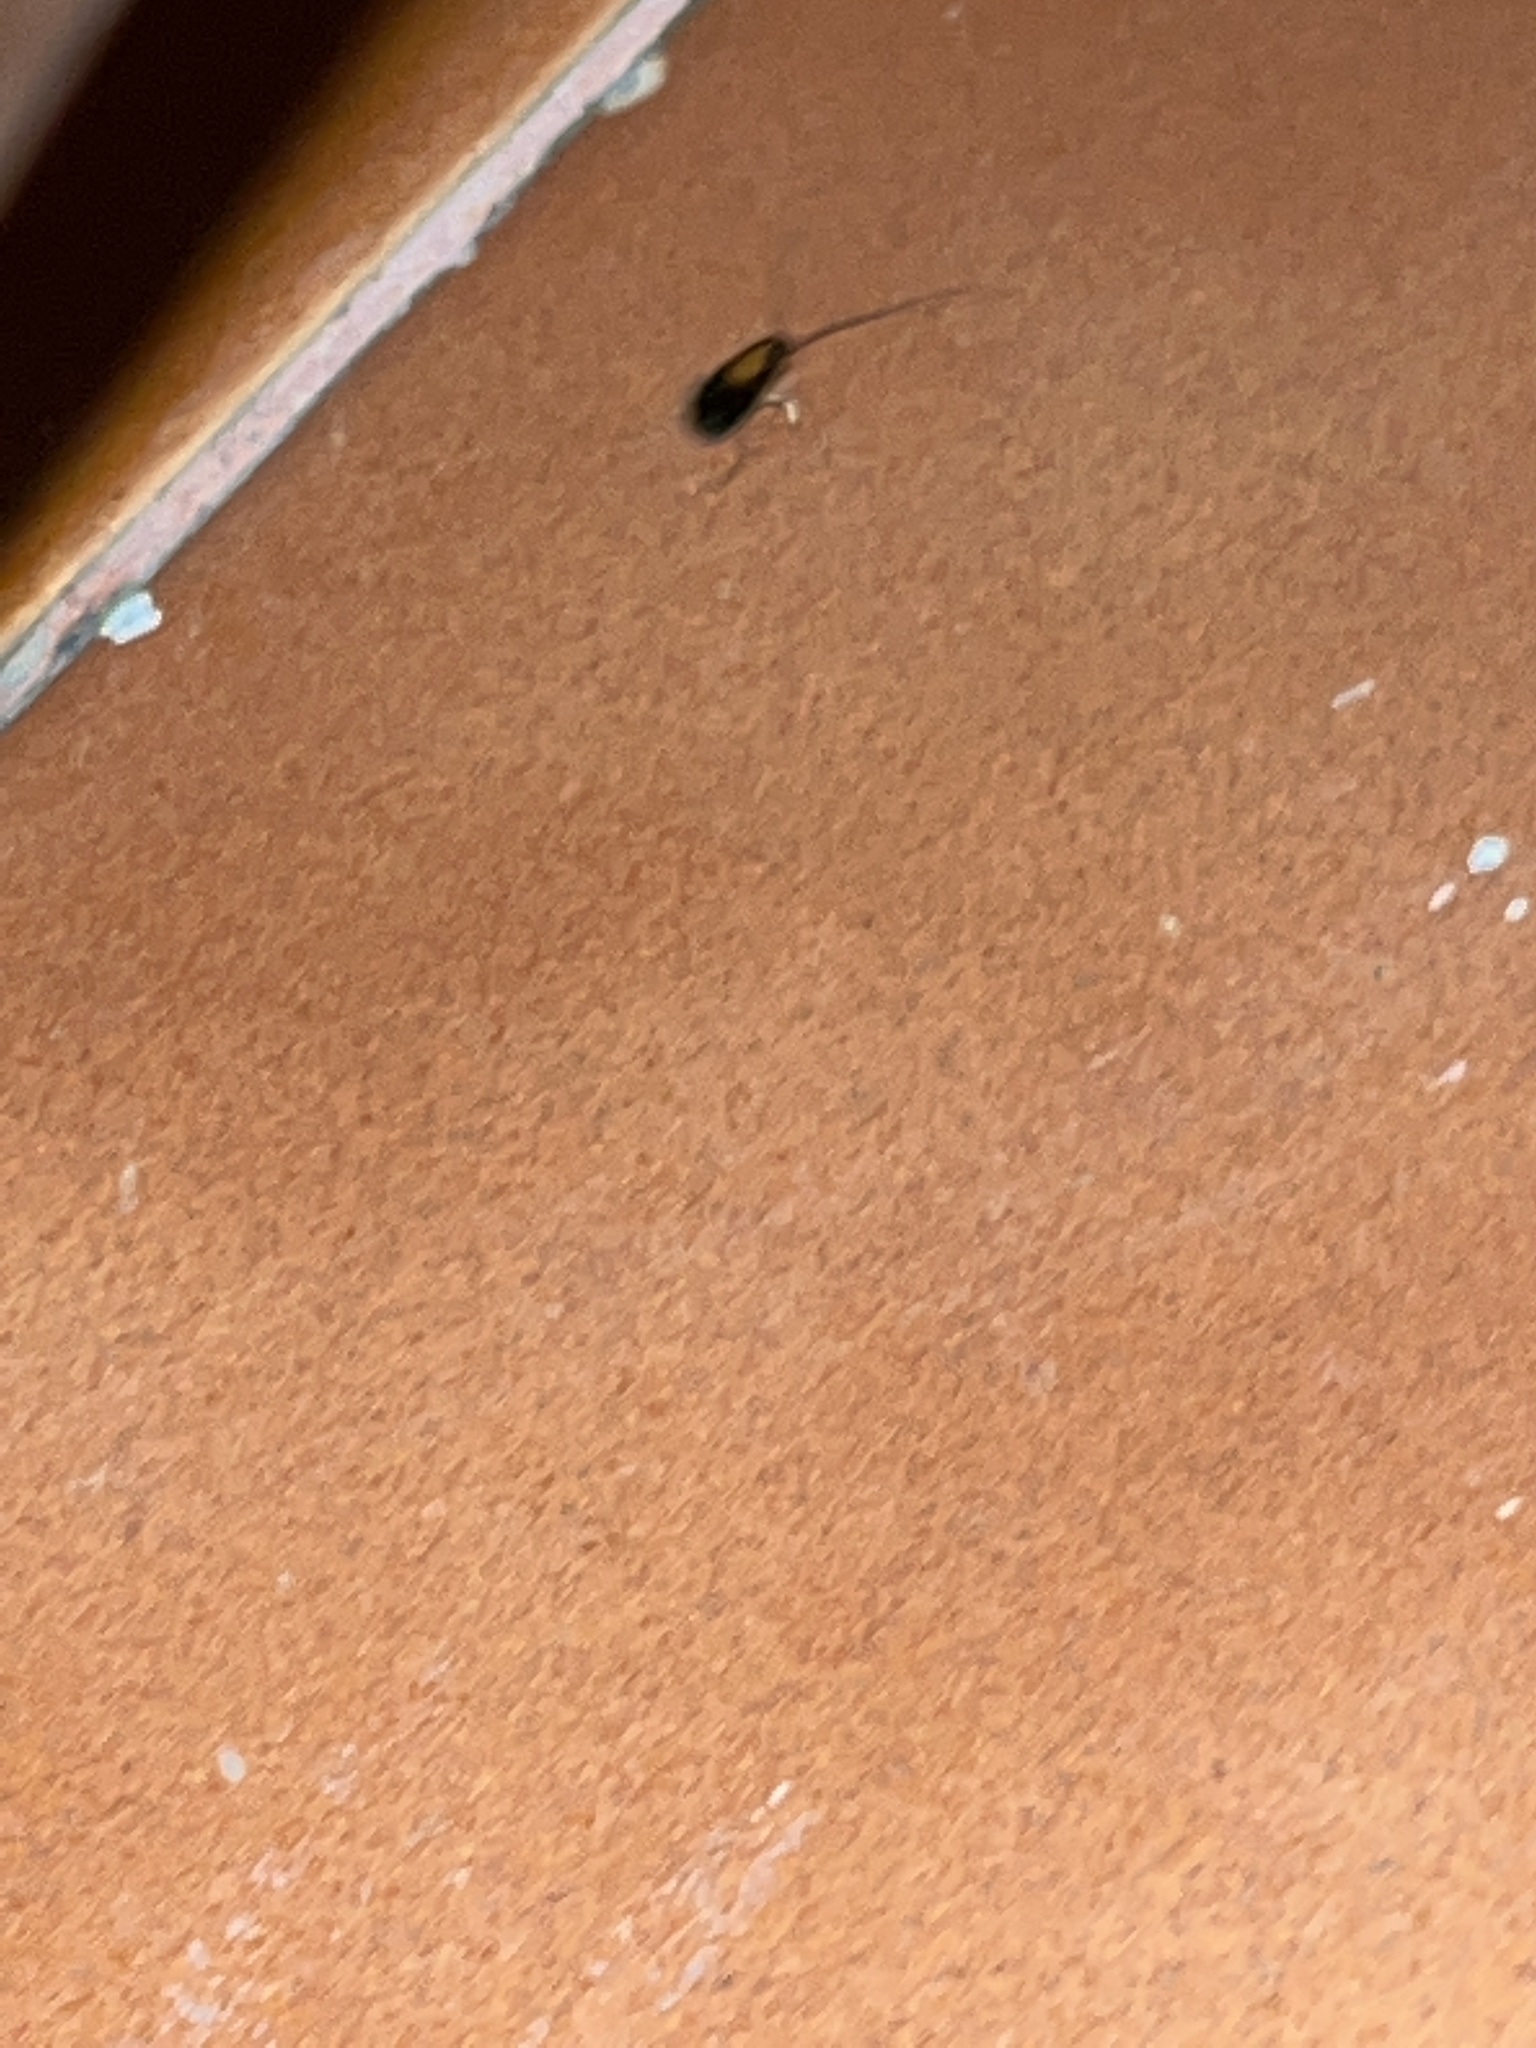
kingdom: Animalia
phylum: Arthropoda
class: Insecta
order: Blattodea
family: Ectobiidae
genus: Blattella
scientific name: Blattella germanica
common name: German cockroach
